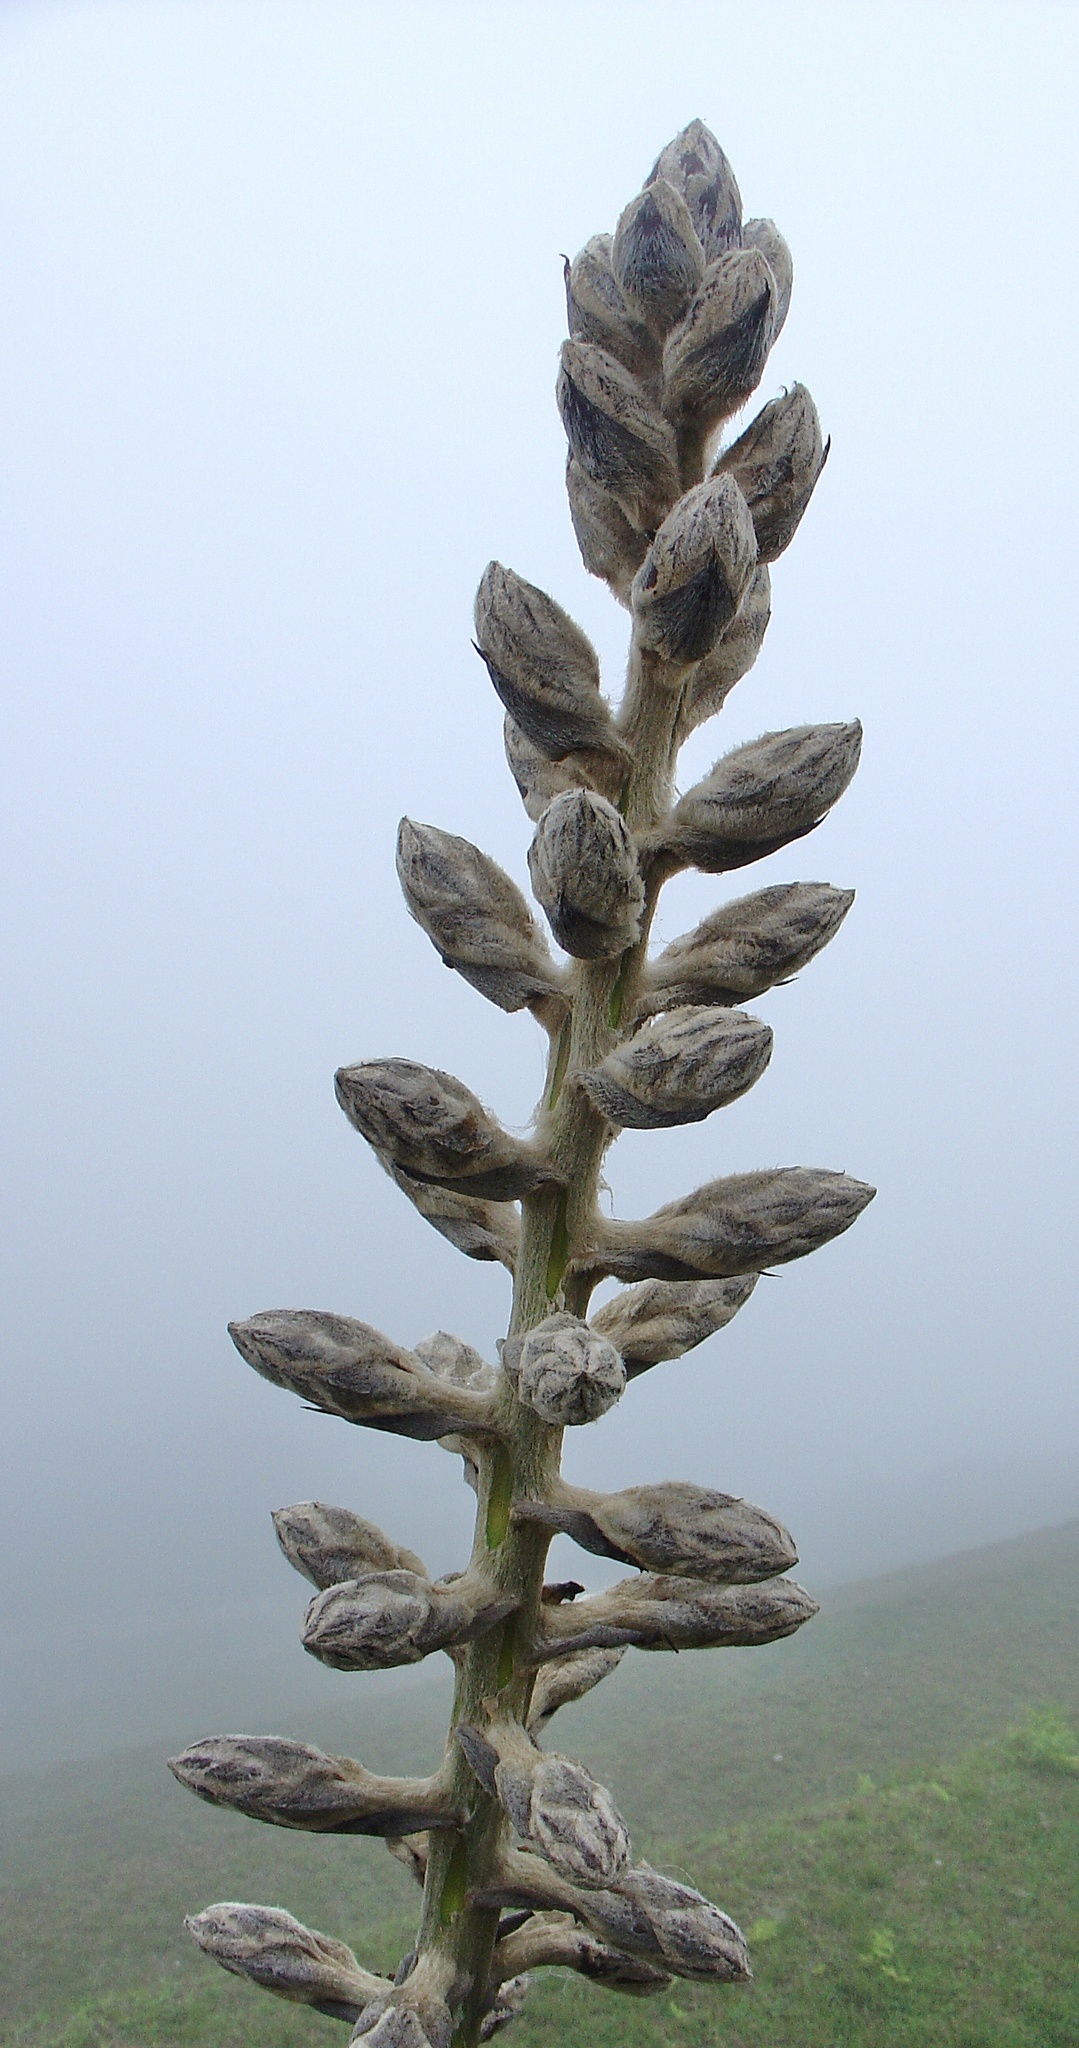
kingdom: Plantae
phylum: Tracheophyta
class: Liliopsida
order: Poales
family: Bromeliaceae
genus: Puya
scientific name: Puya weberbaueri
